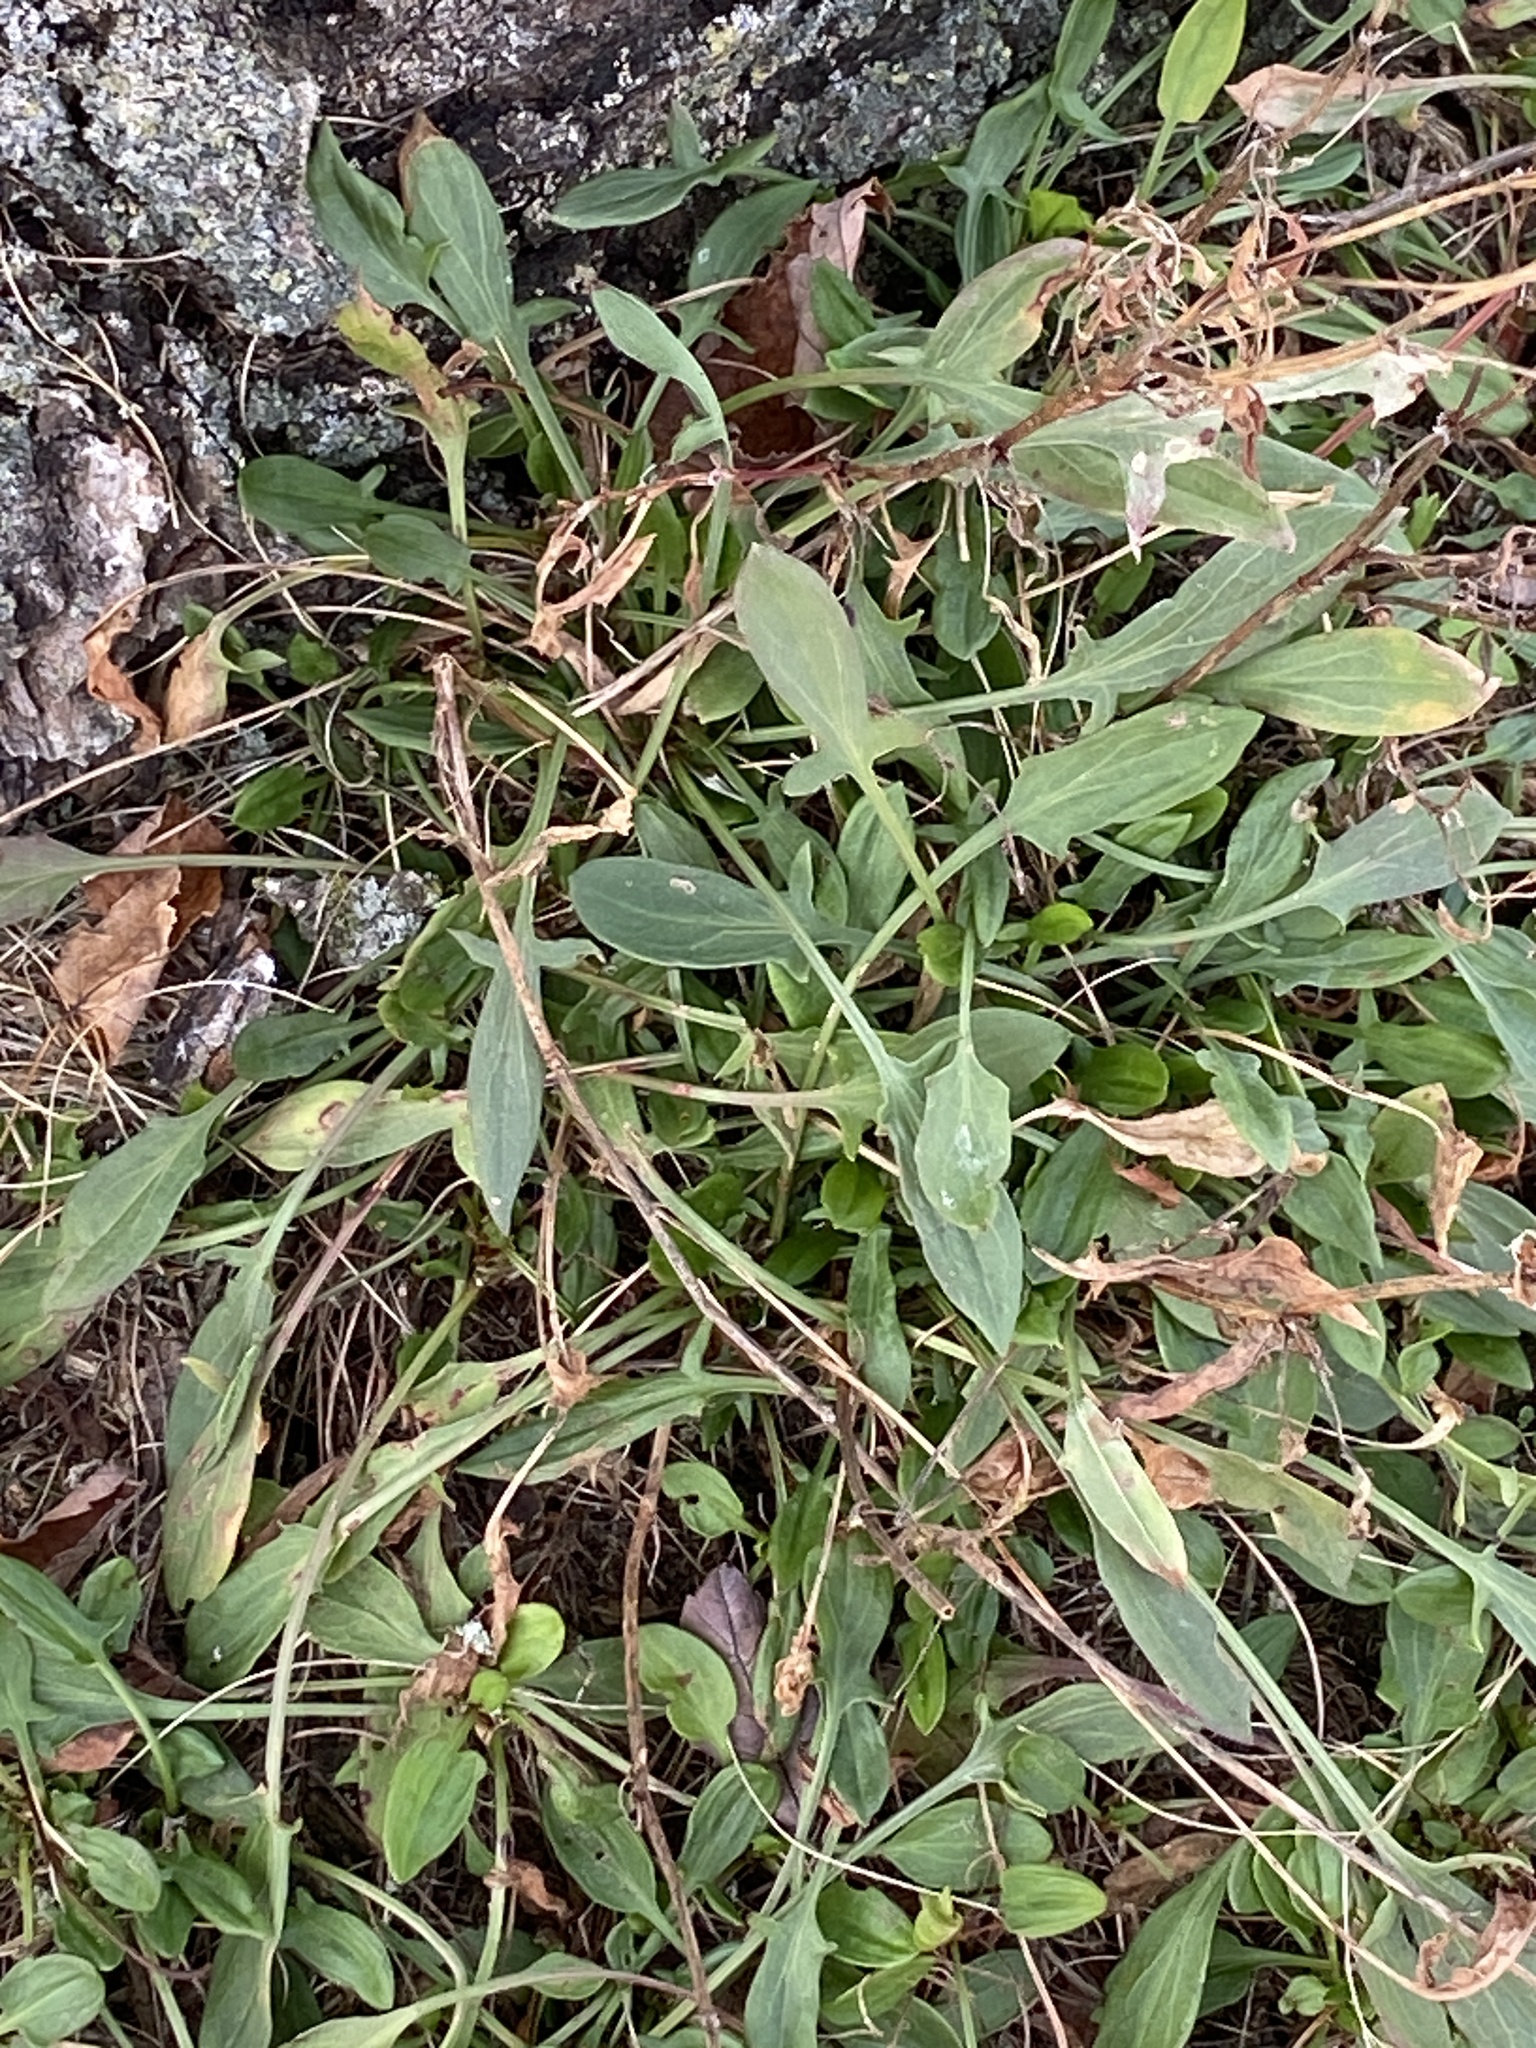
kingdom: Plantae
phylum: Tracheophyta
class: Magnoliopsida
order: Caryophyllales
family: Polygonaceae
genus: Rumex
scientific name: Rumex acetosella
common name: Common sheep sorrel
